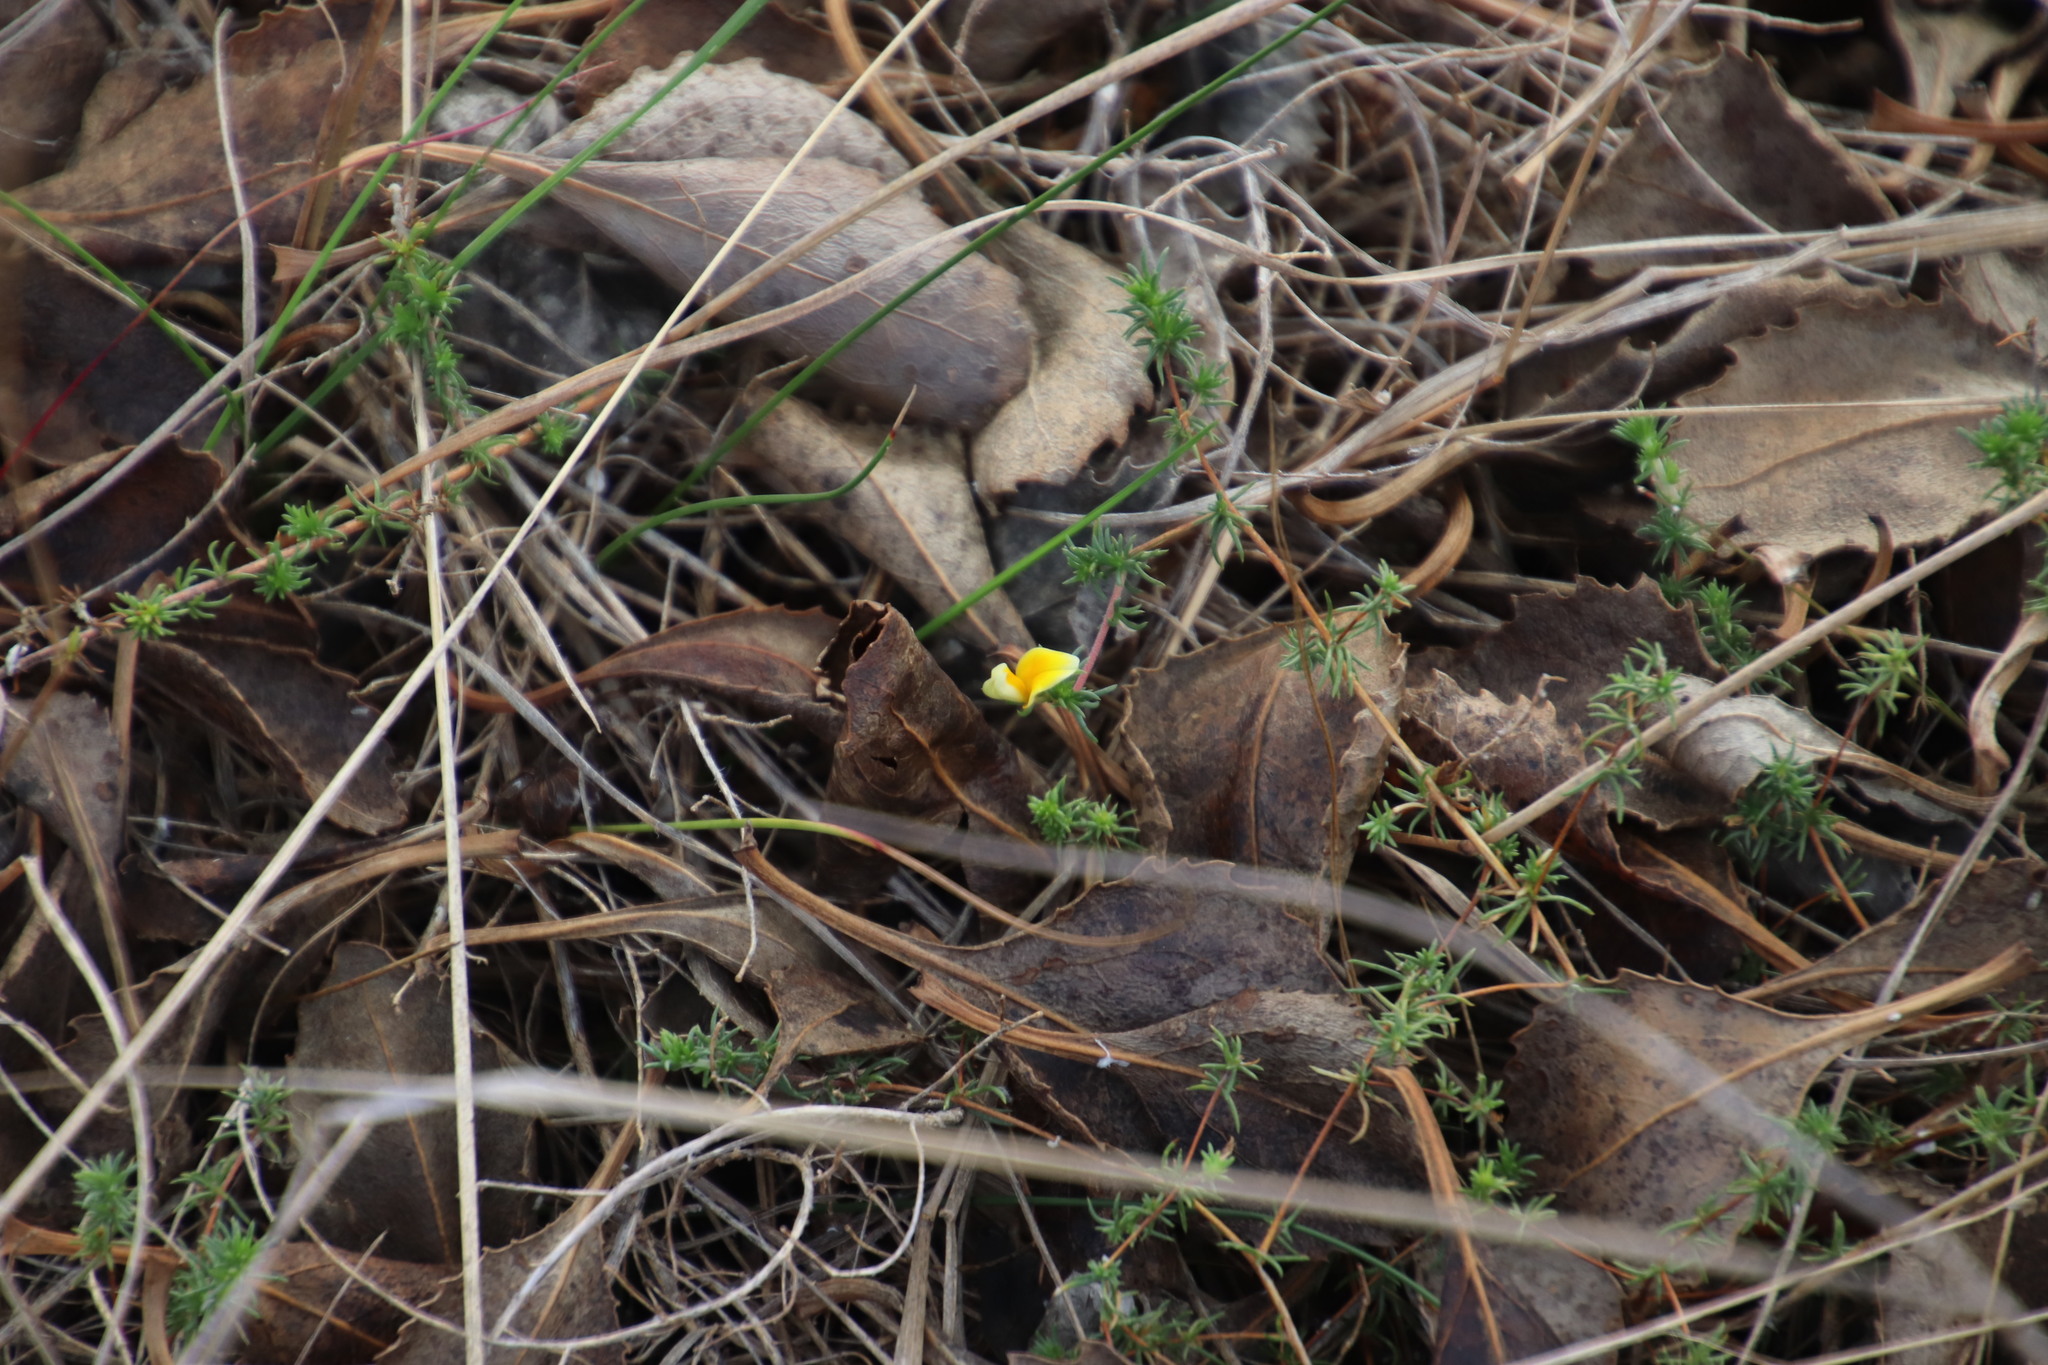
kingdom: Plantae
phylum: Tracheophyta
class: Magnoliopsida
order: Fabales
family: Fabaceae
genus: Aspalathus
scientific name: Aspalathus retroflexa
